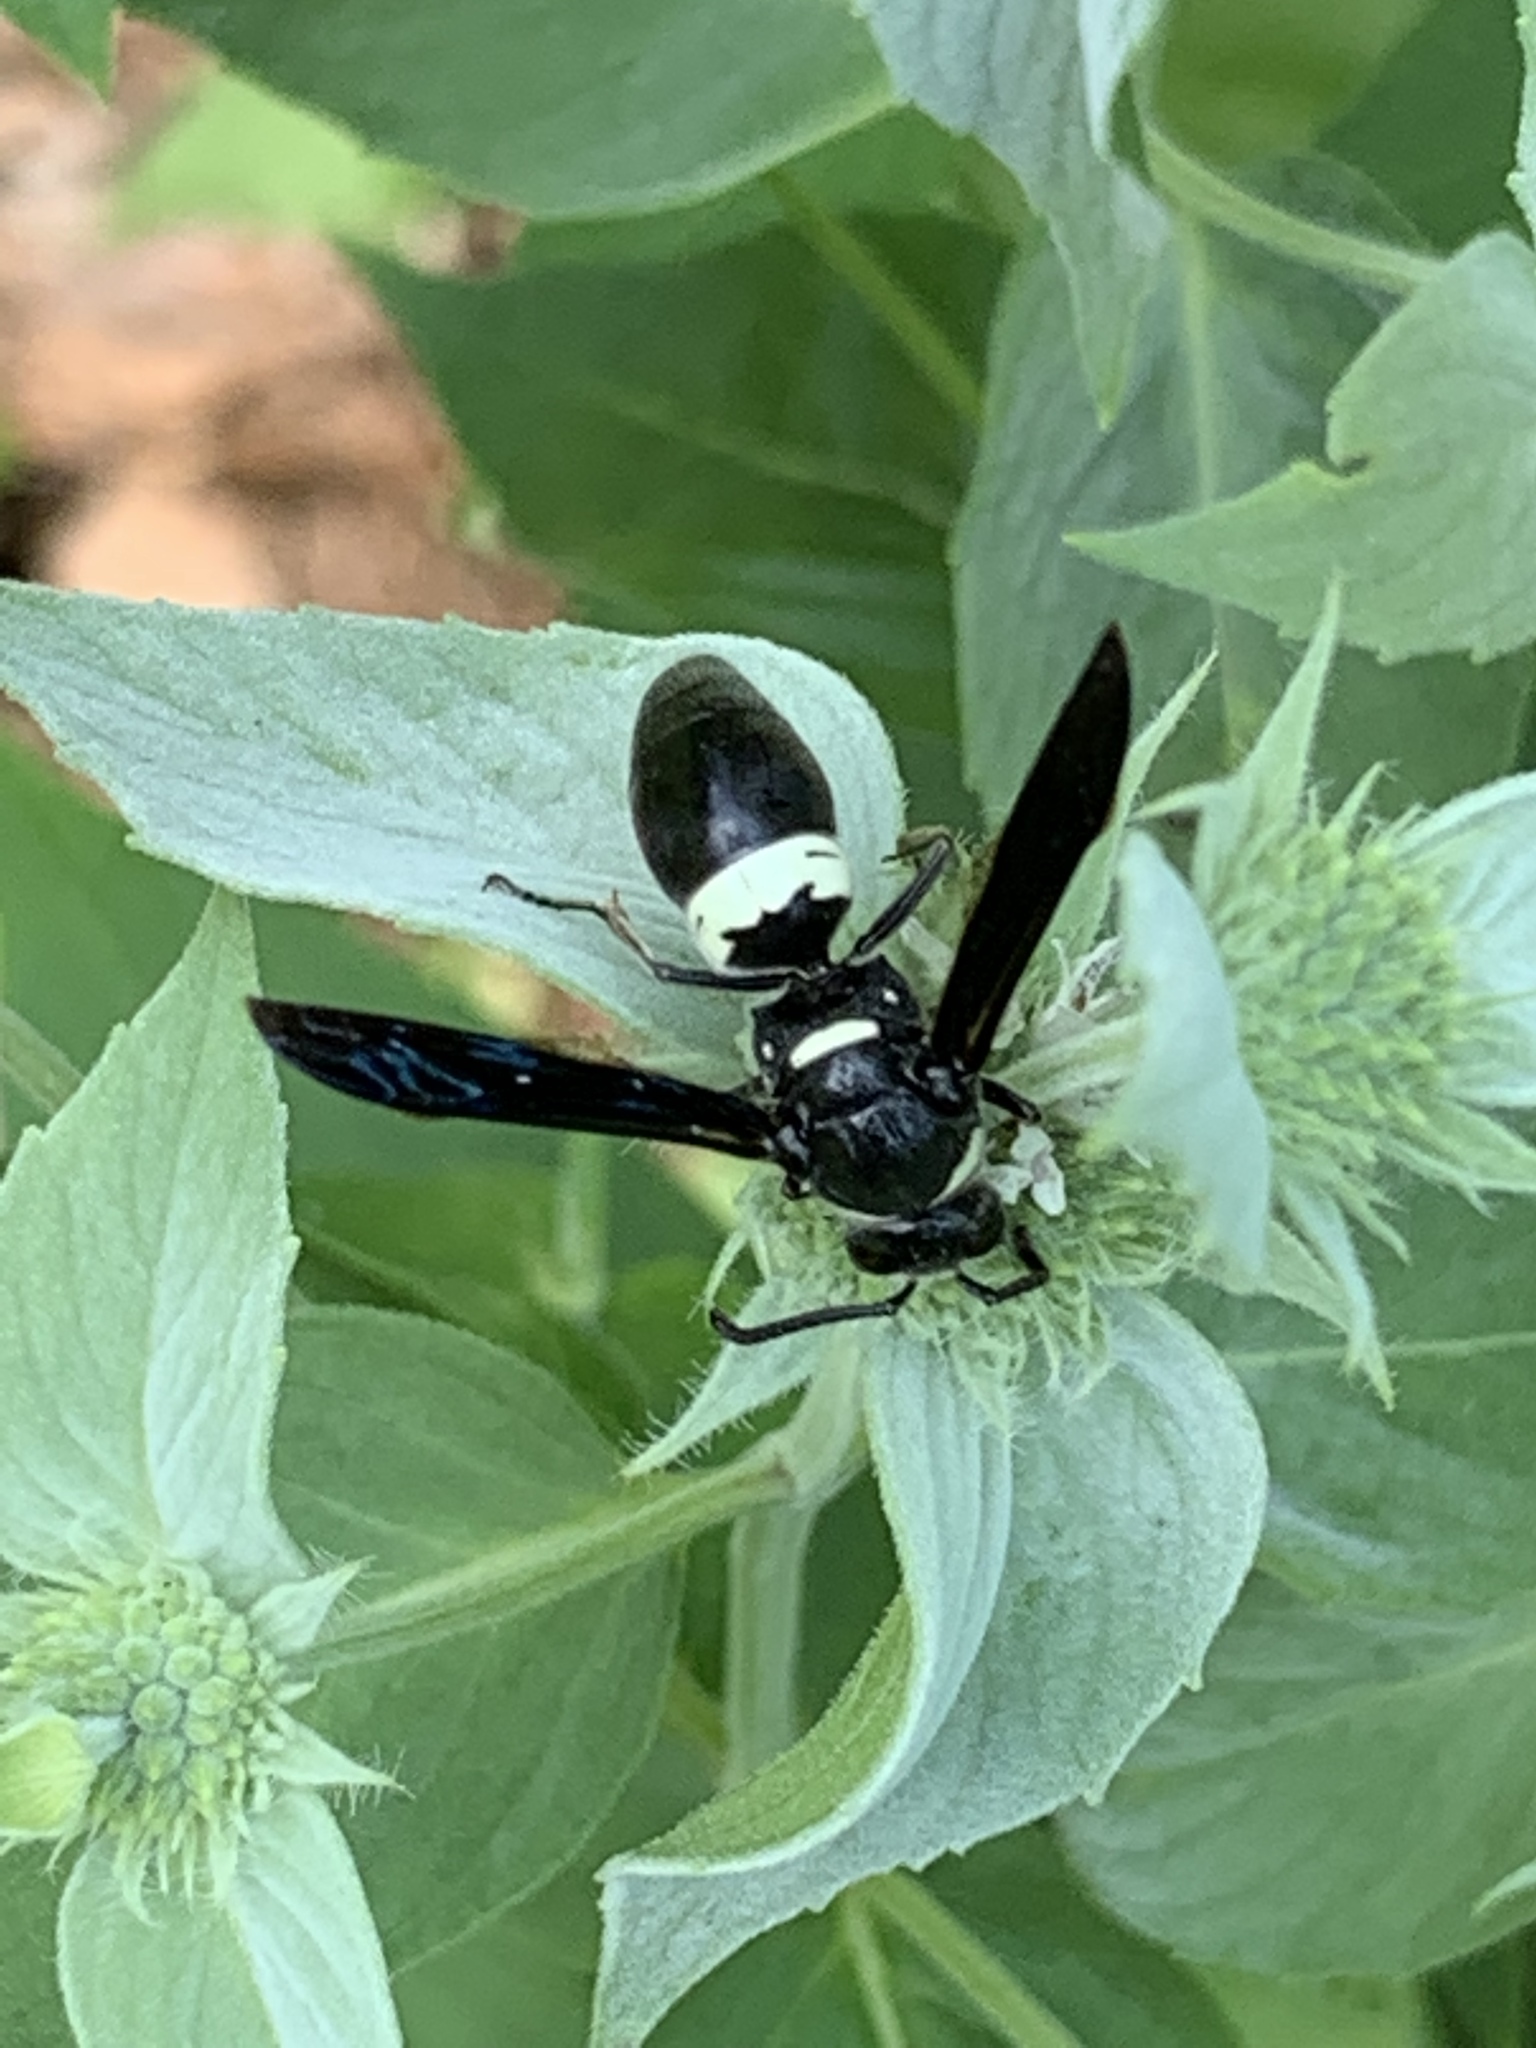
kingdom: Animalia
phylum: Arthropoda
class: Insecta
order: Hymenoptera
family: Eumenidae
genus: Monobia
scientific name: Monobia quadridens
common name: Four-toothed mason wasp
